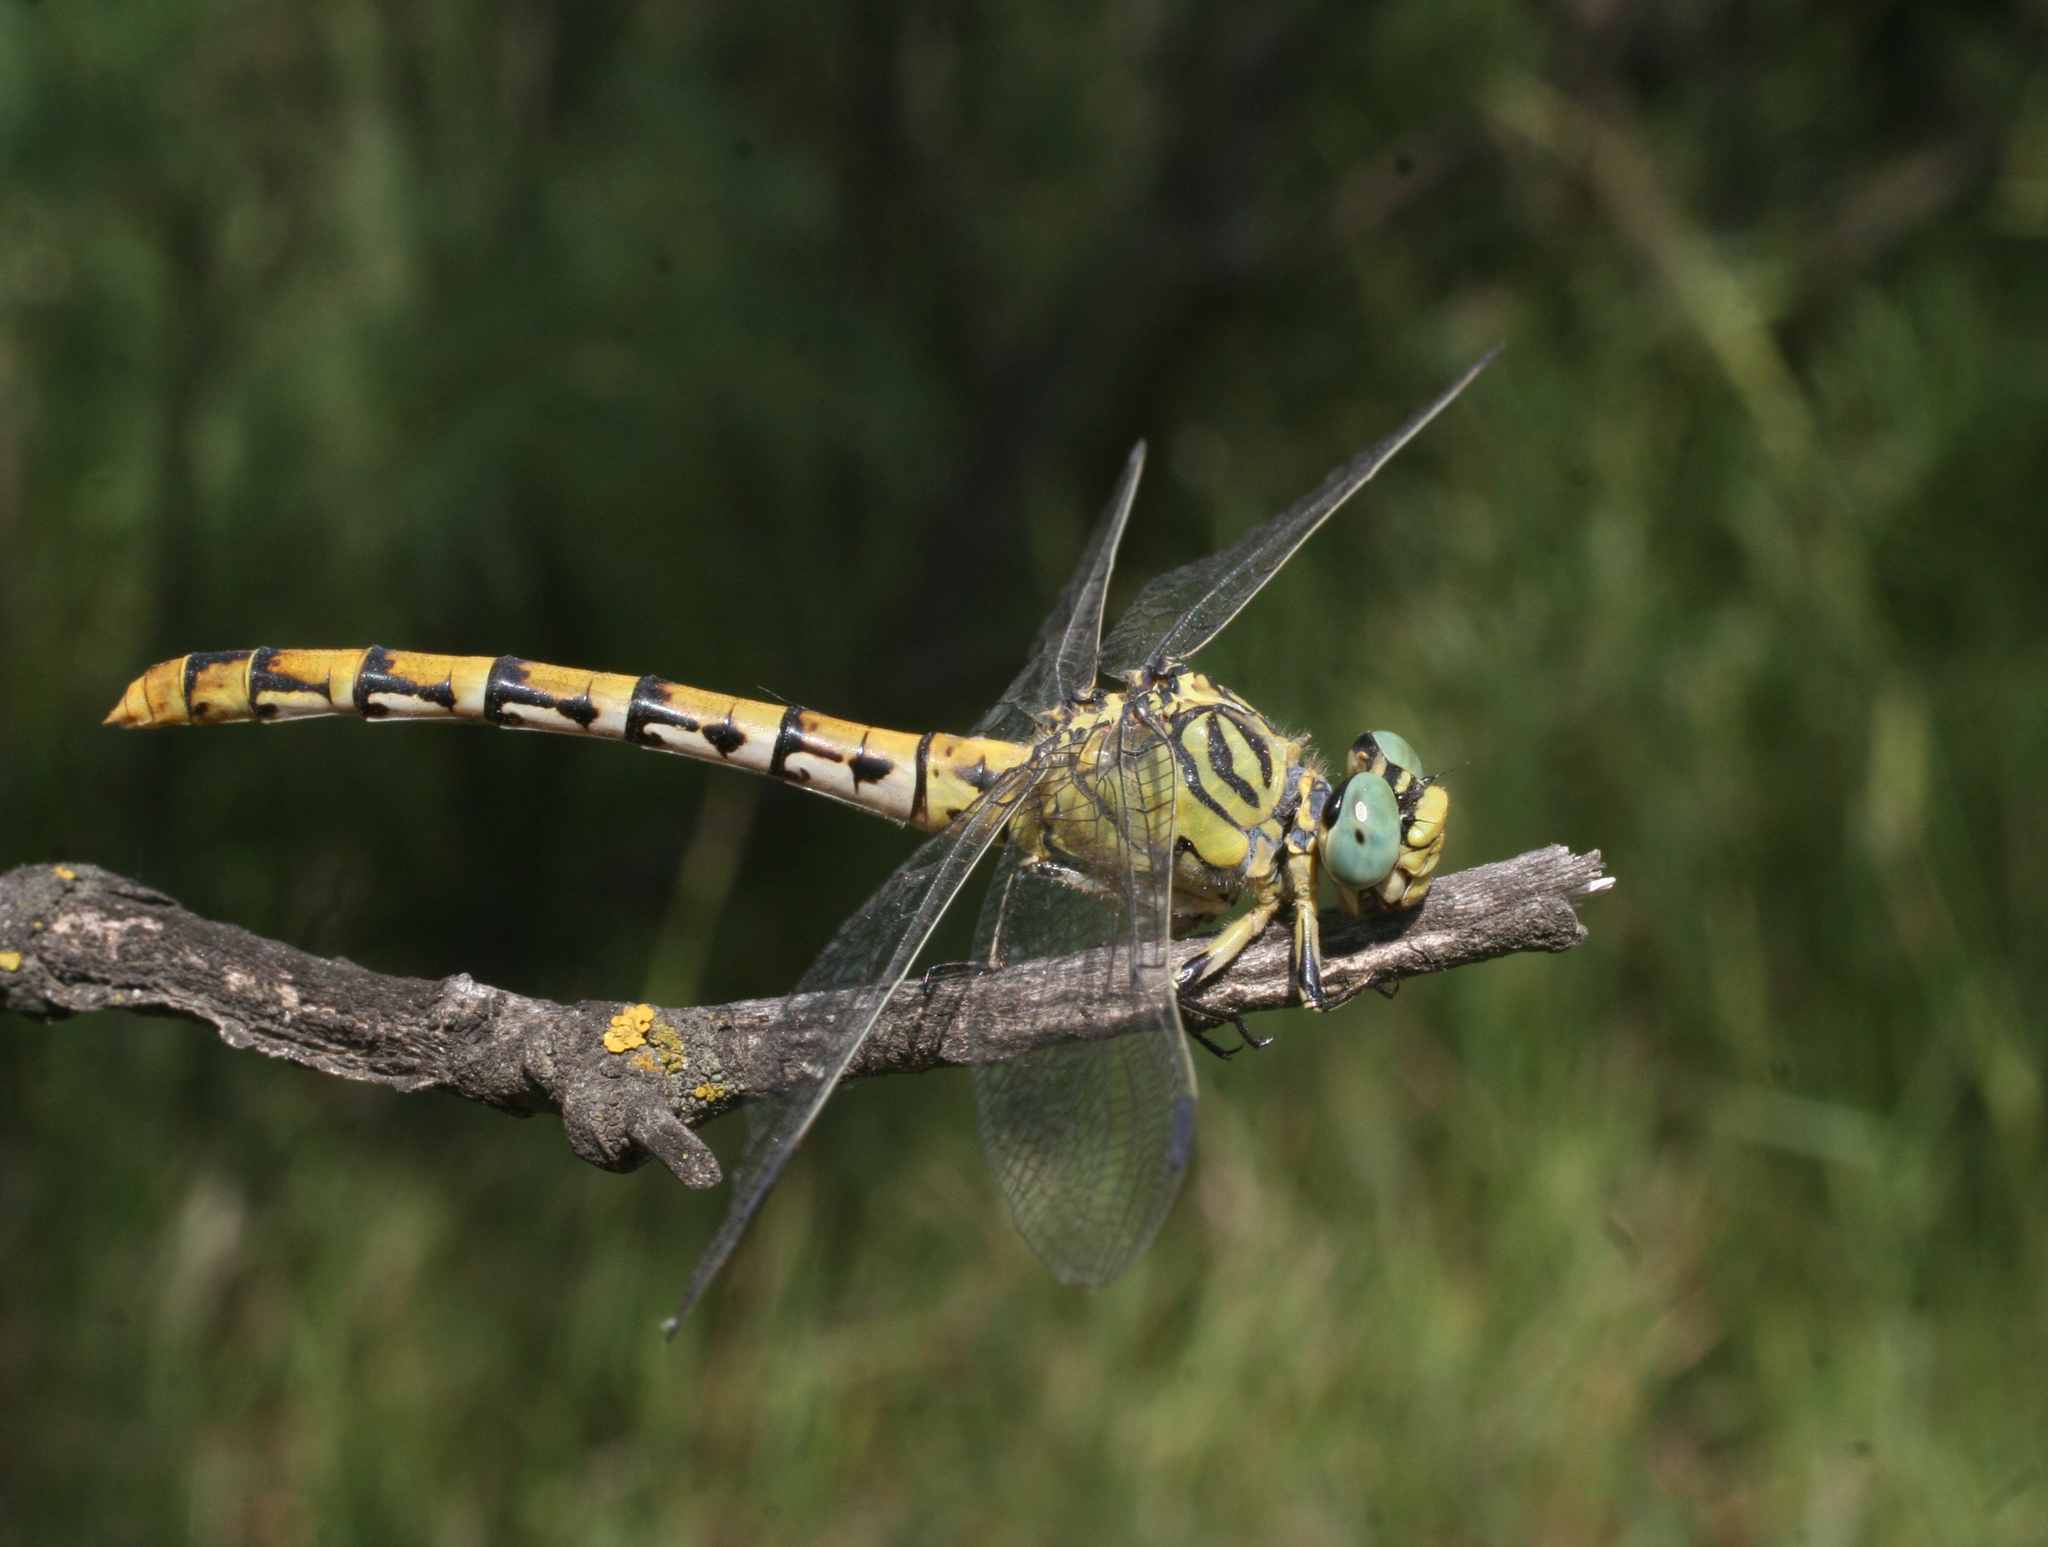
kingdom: Animalia
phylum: Arthropoda
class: Insecta
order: Odonata
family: Gomphidae
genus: Onychogomphus
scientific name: Onychogomphus forcipatus
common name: Small pincertail
